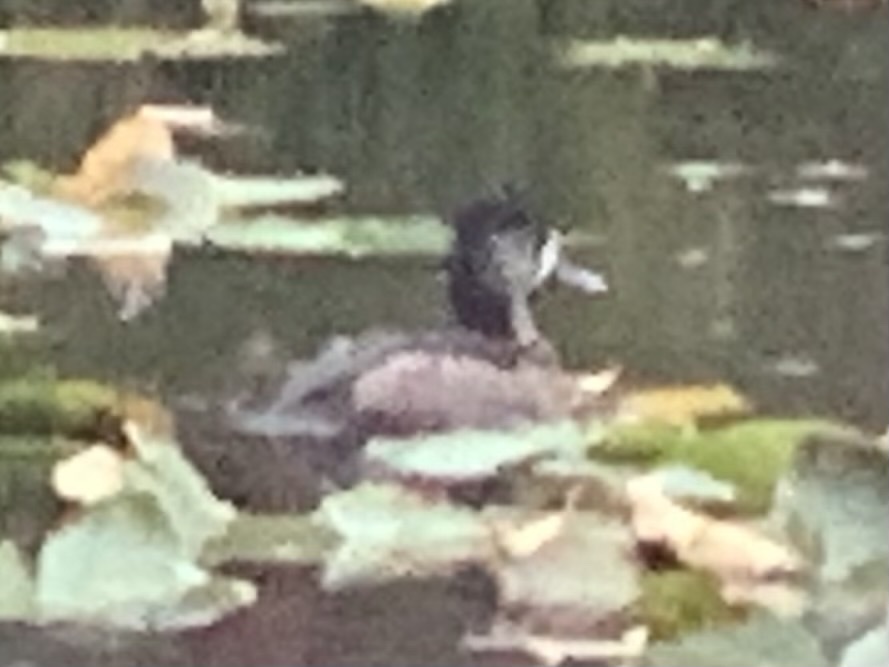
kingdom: Animalia
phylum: Chordata
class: Aves
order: Anseriformes
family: Anatidae
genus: Aythya
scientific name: Aythya collaris
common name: Ring-necked duck
